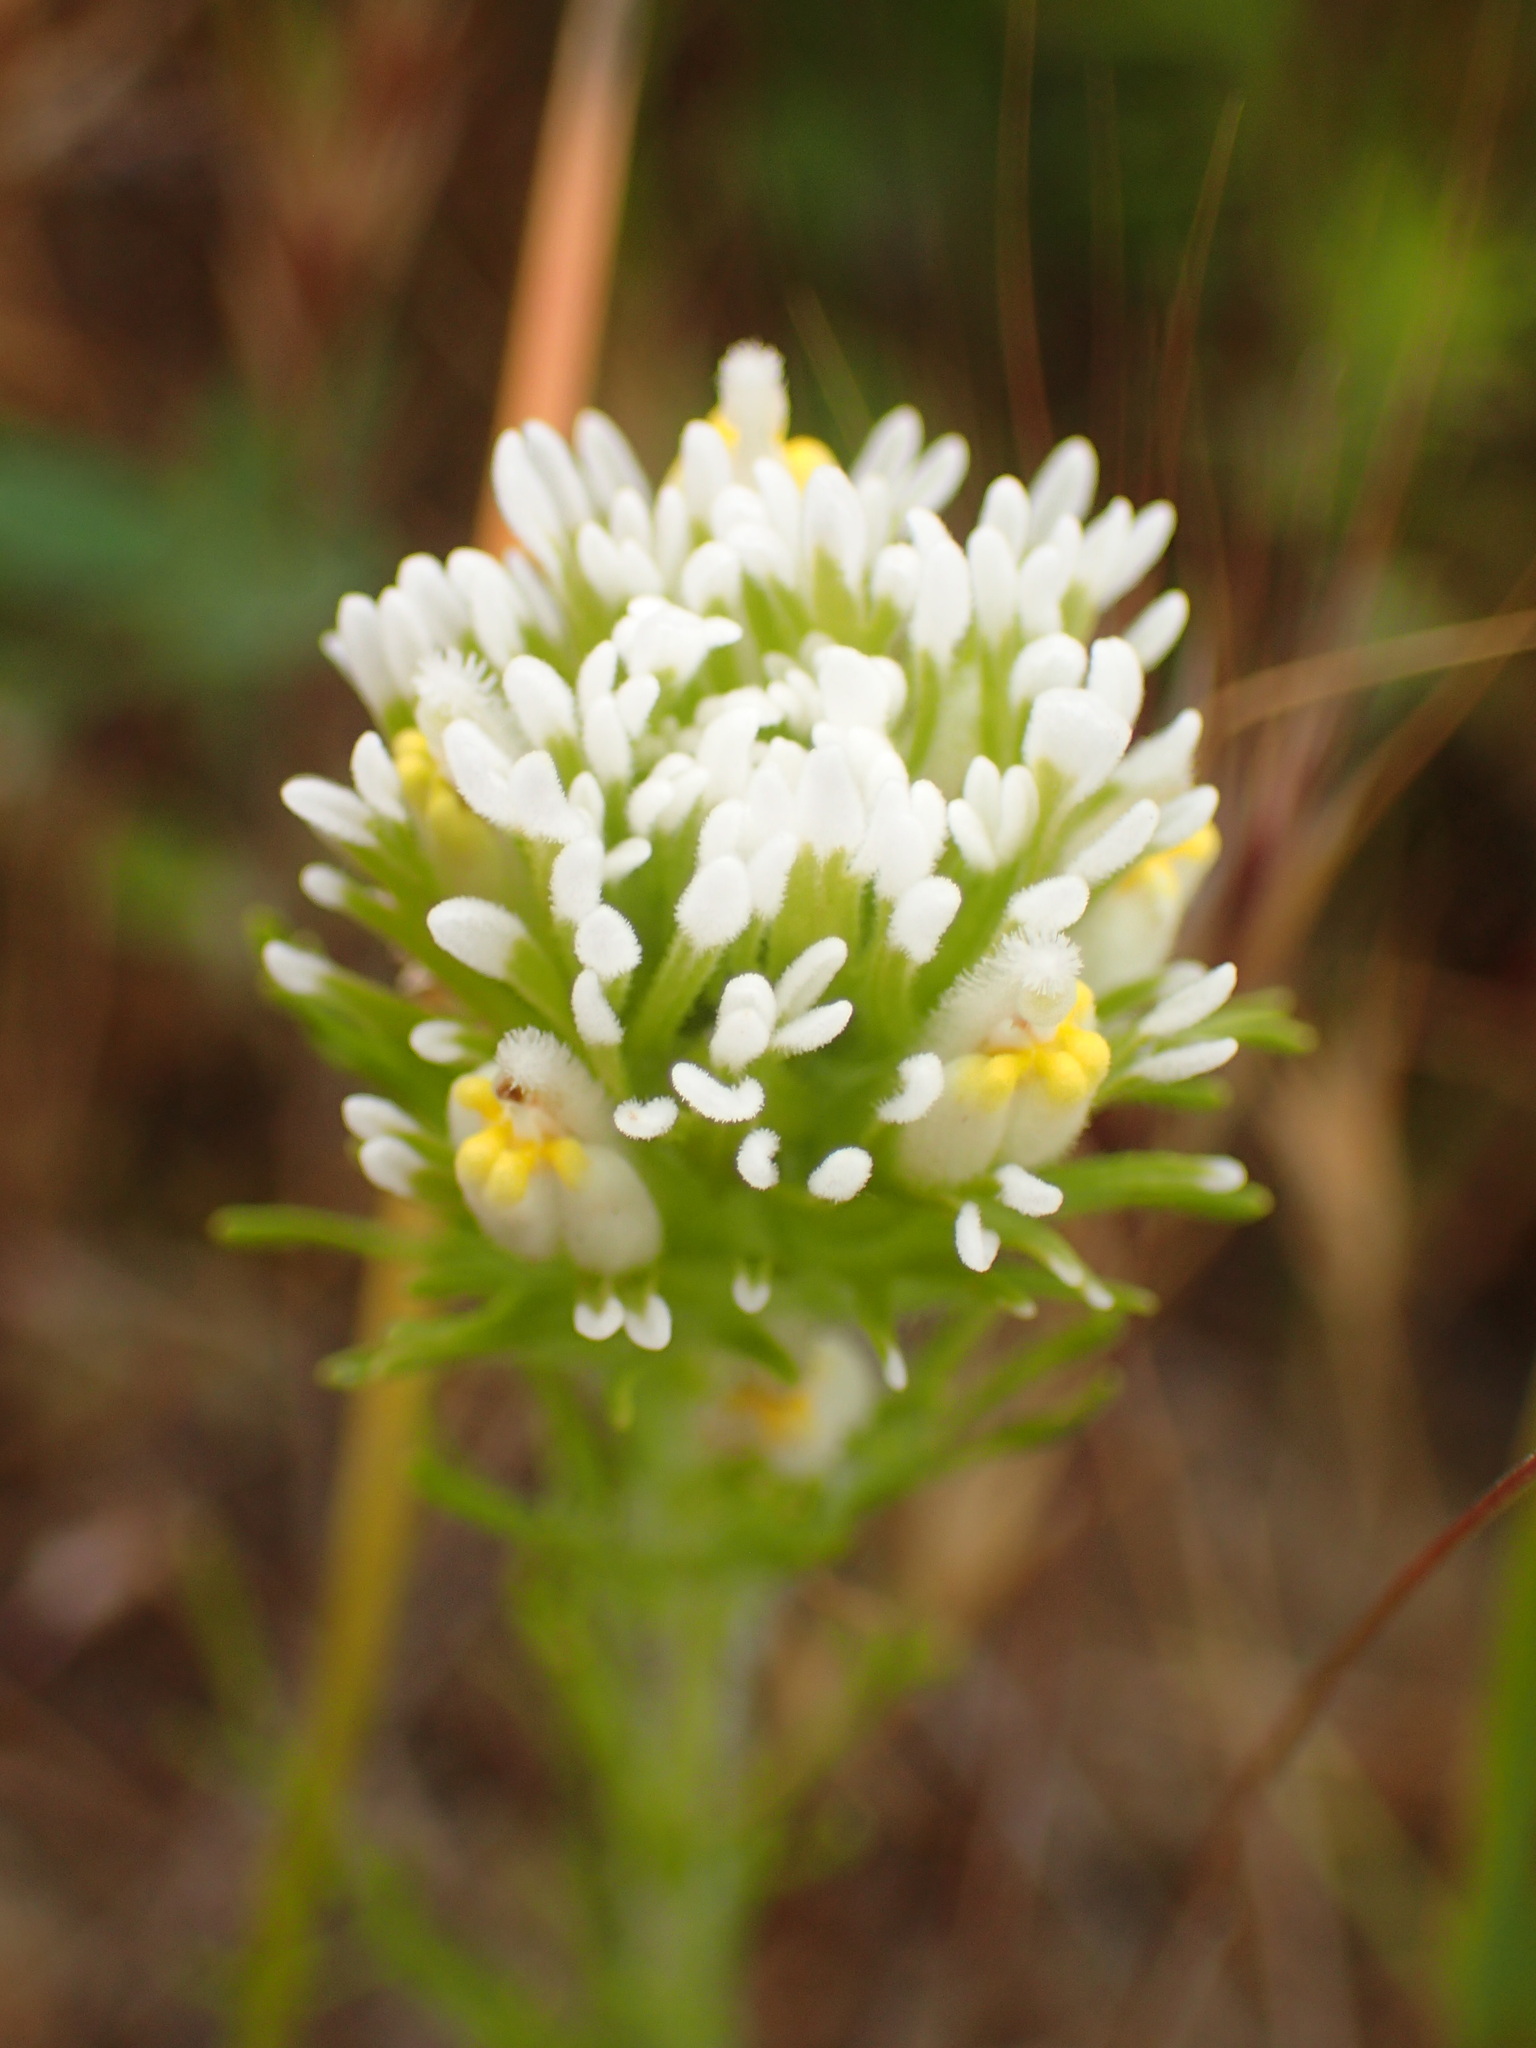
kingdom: Plantae
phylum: Tracheophyta
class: Magnoliopsida
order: Lamiales
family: Orobanchaceae
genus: Castilleja
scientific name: Castilleja exserta
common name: Purple owl-clover
